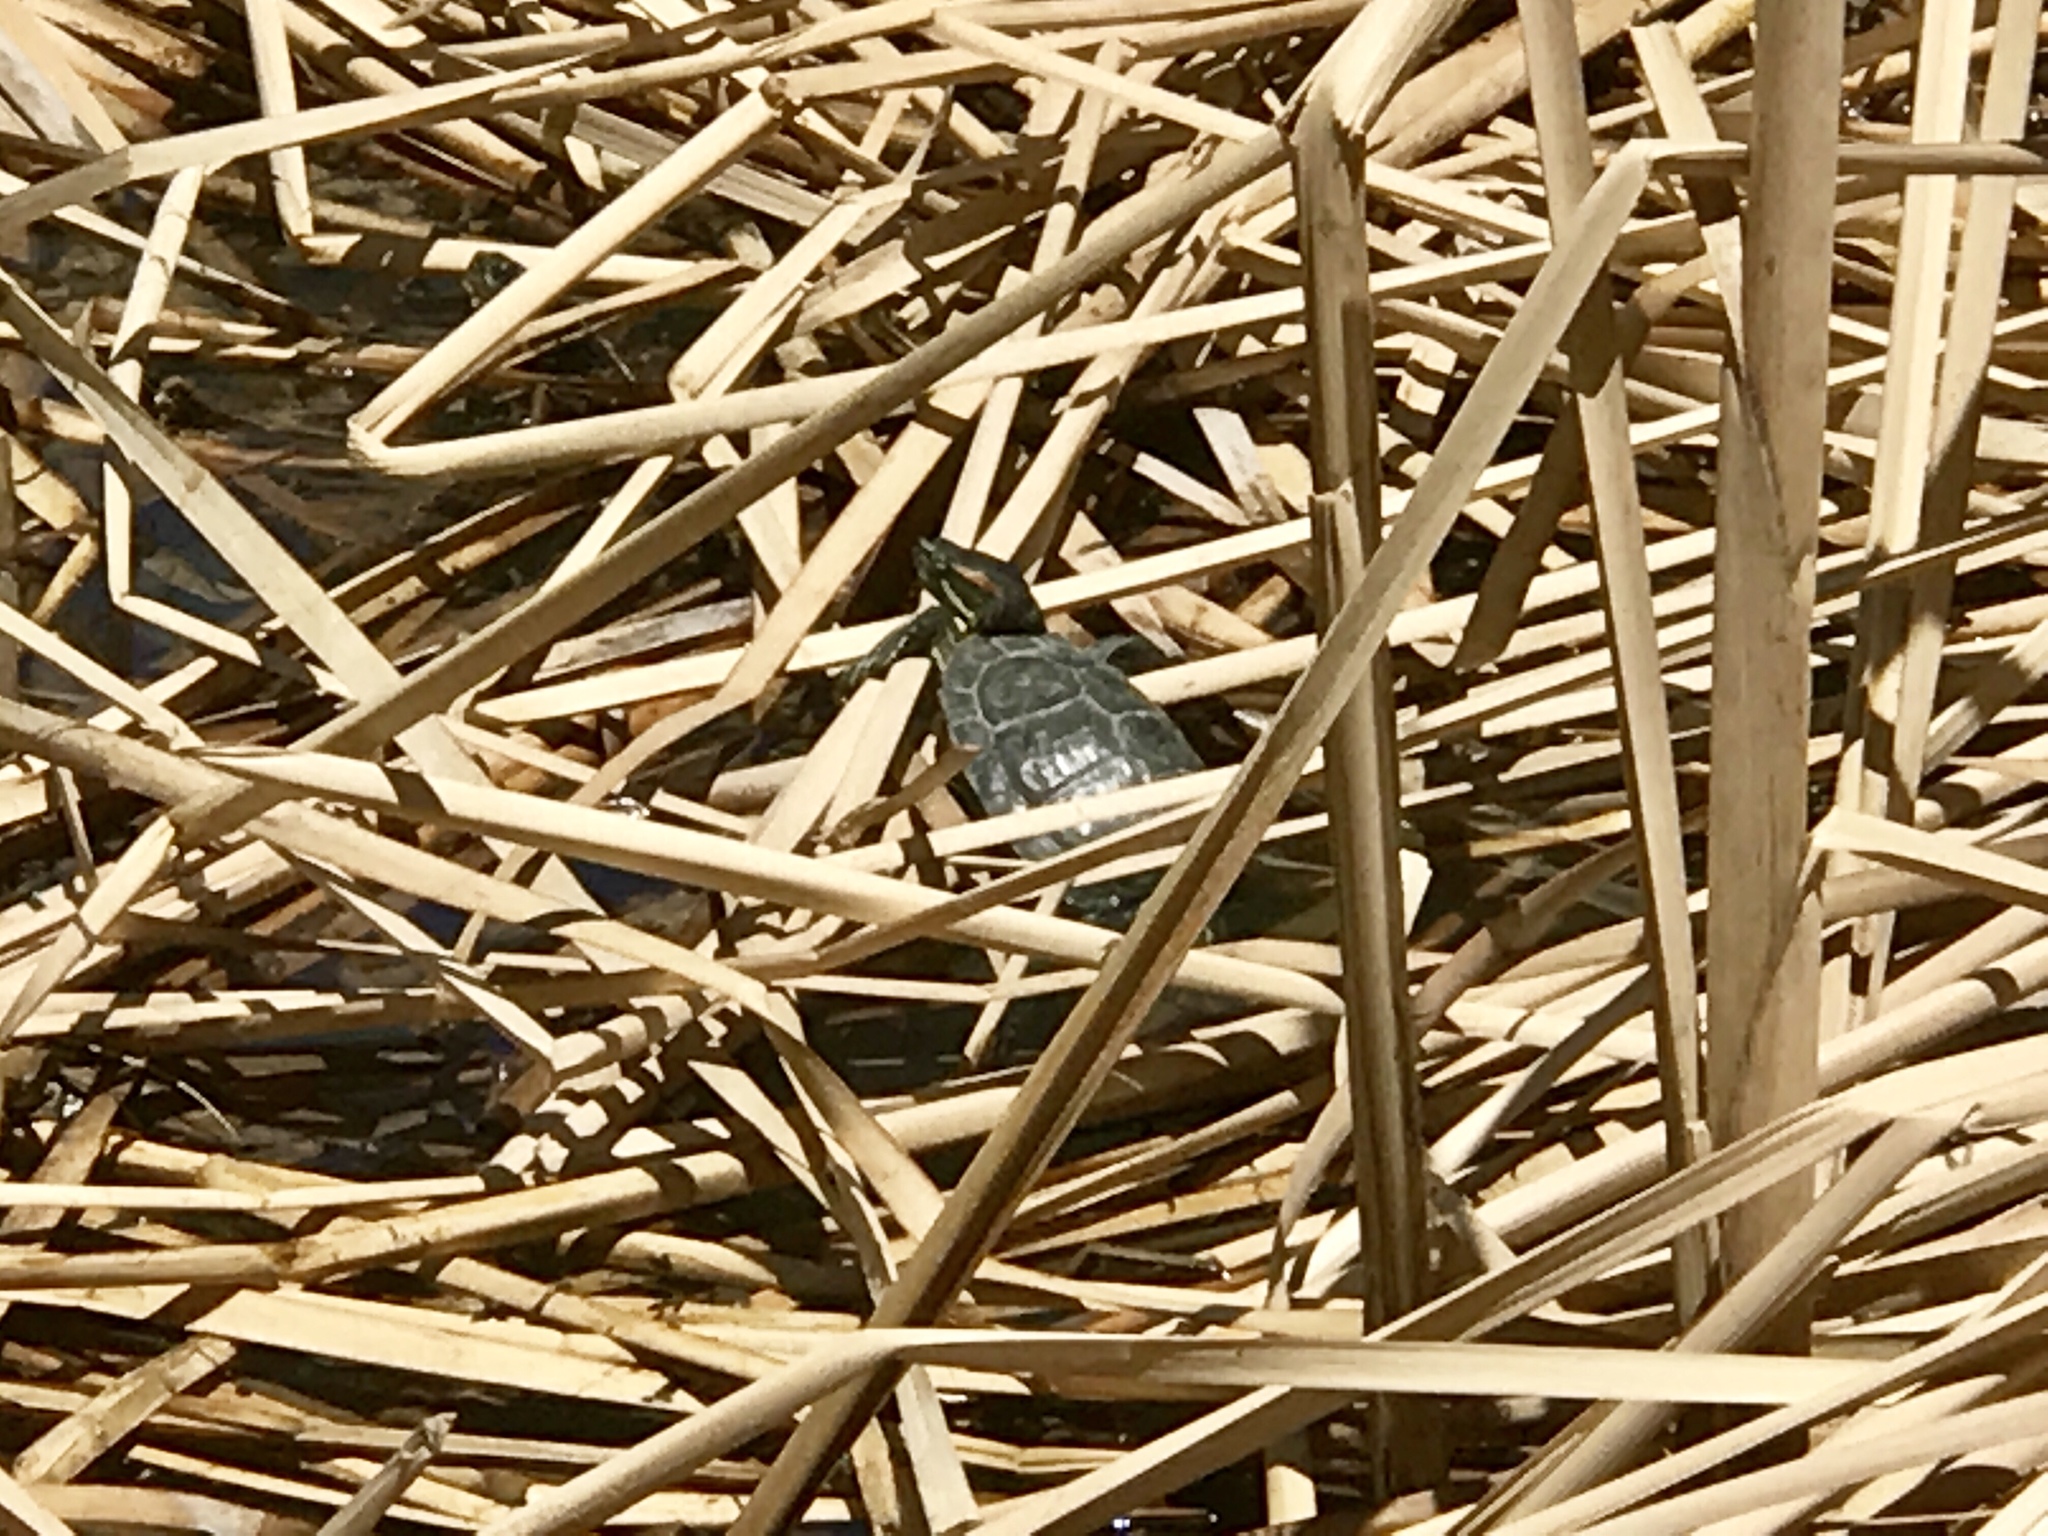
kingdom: Animalia
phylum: Chordata
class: Testudines
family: Emydidae
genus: Trachemys
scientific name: Trachemys scripta
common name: Slider
